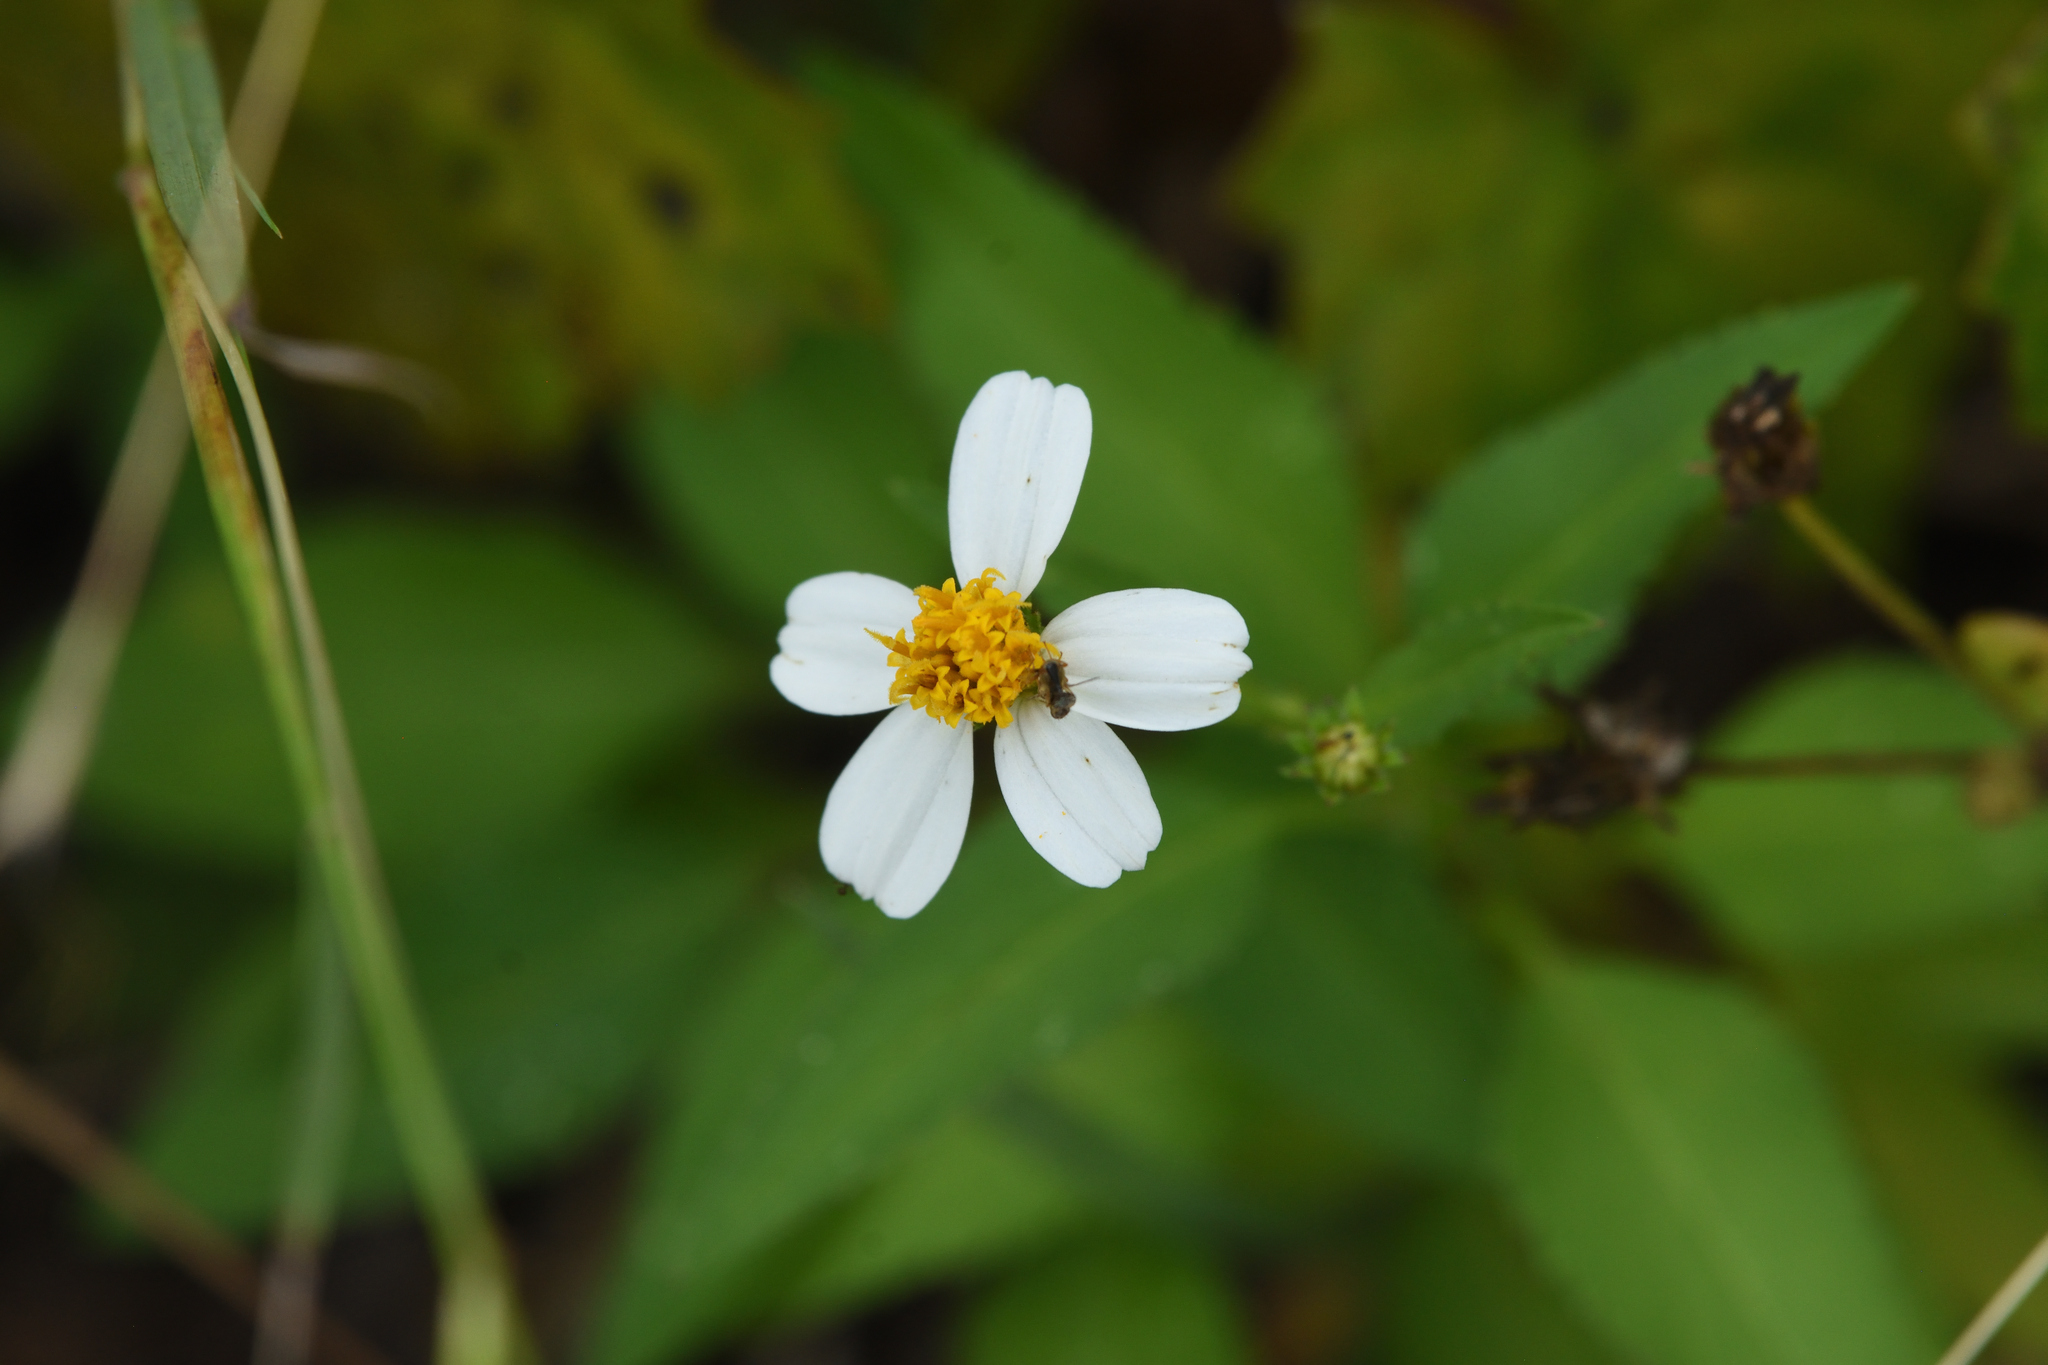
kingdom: Plantae
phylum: Tracheophyta
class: Magnoliopsida
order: Asterales
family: Asteraceae
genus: Bidens
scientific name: Bidens alba
